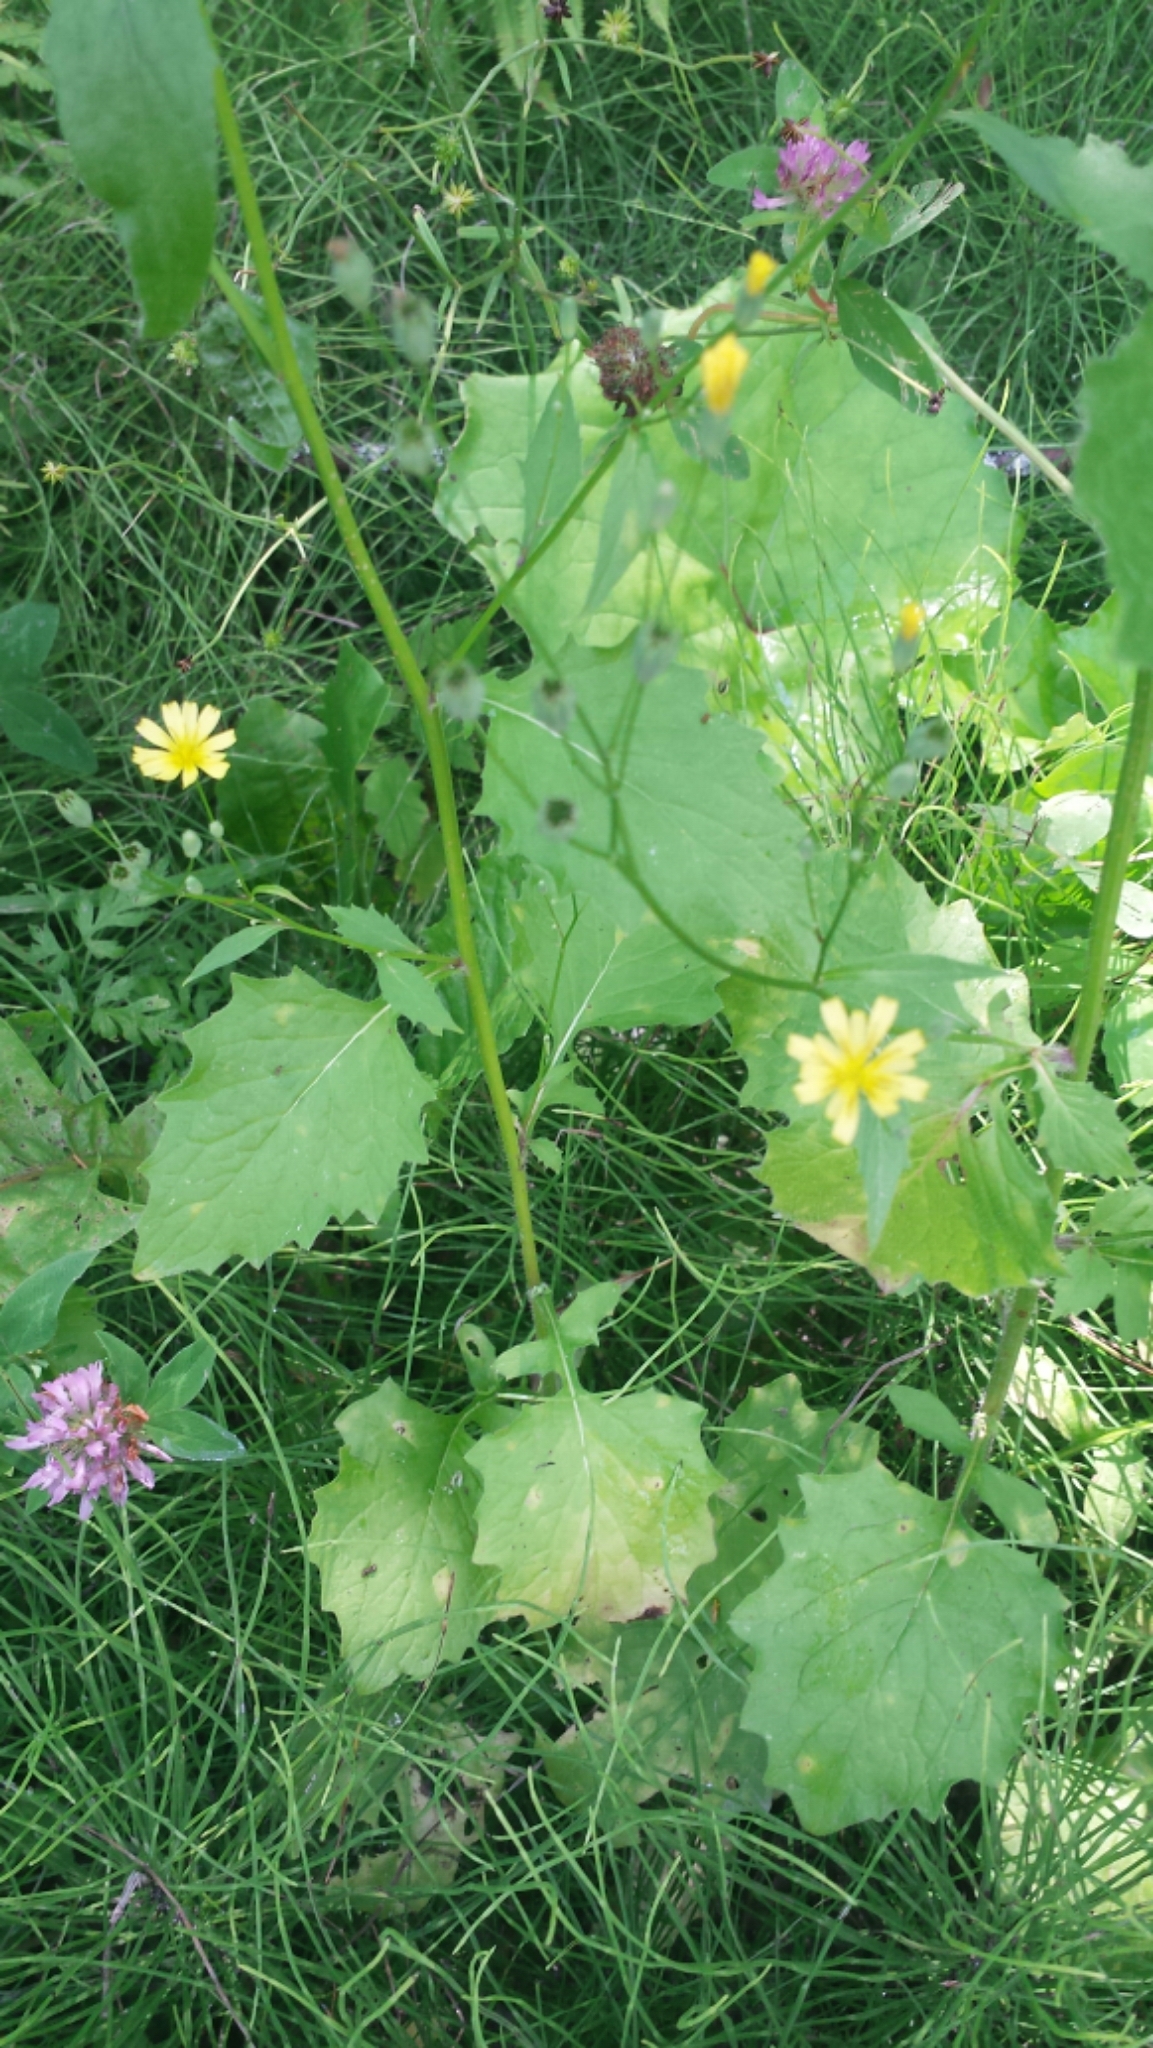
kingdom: Plantae
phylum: Tracheophyta
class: Magnoliopsida
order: Asterales
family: Asteraceae
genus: Lapsana
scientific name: Lapsana communis
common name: Nipplewort
